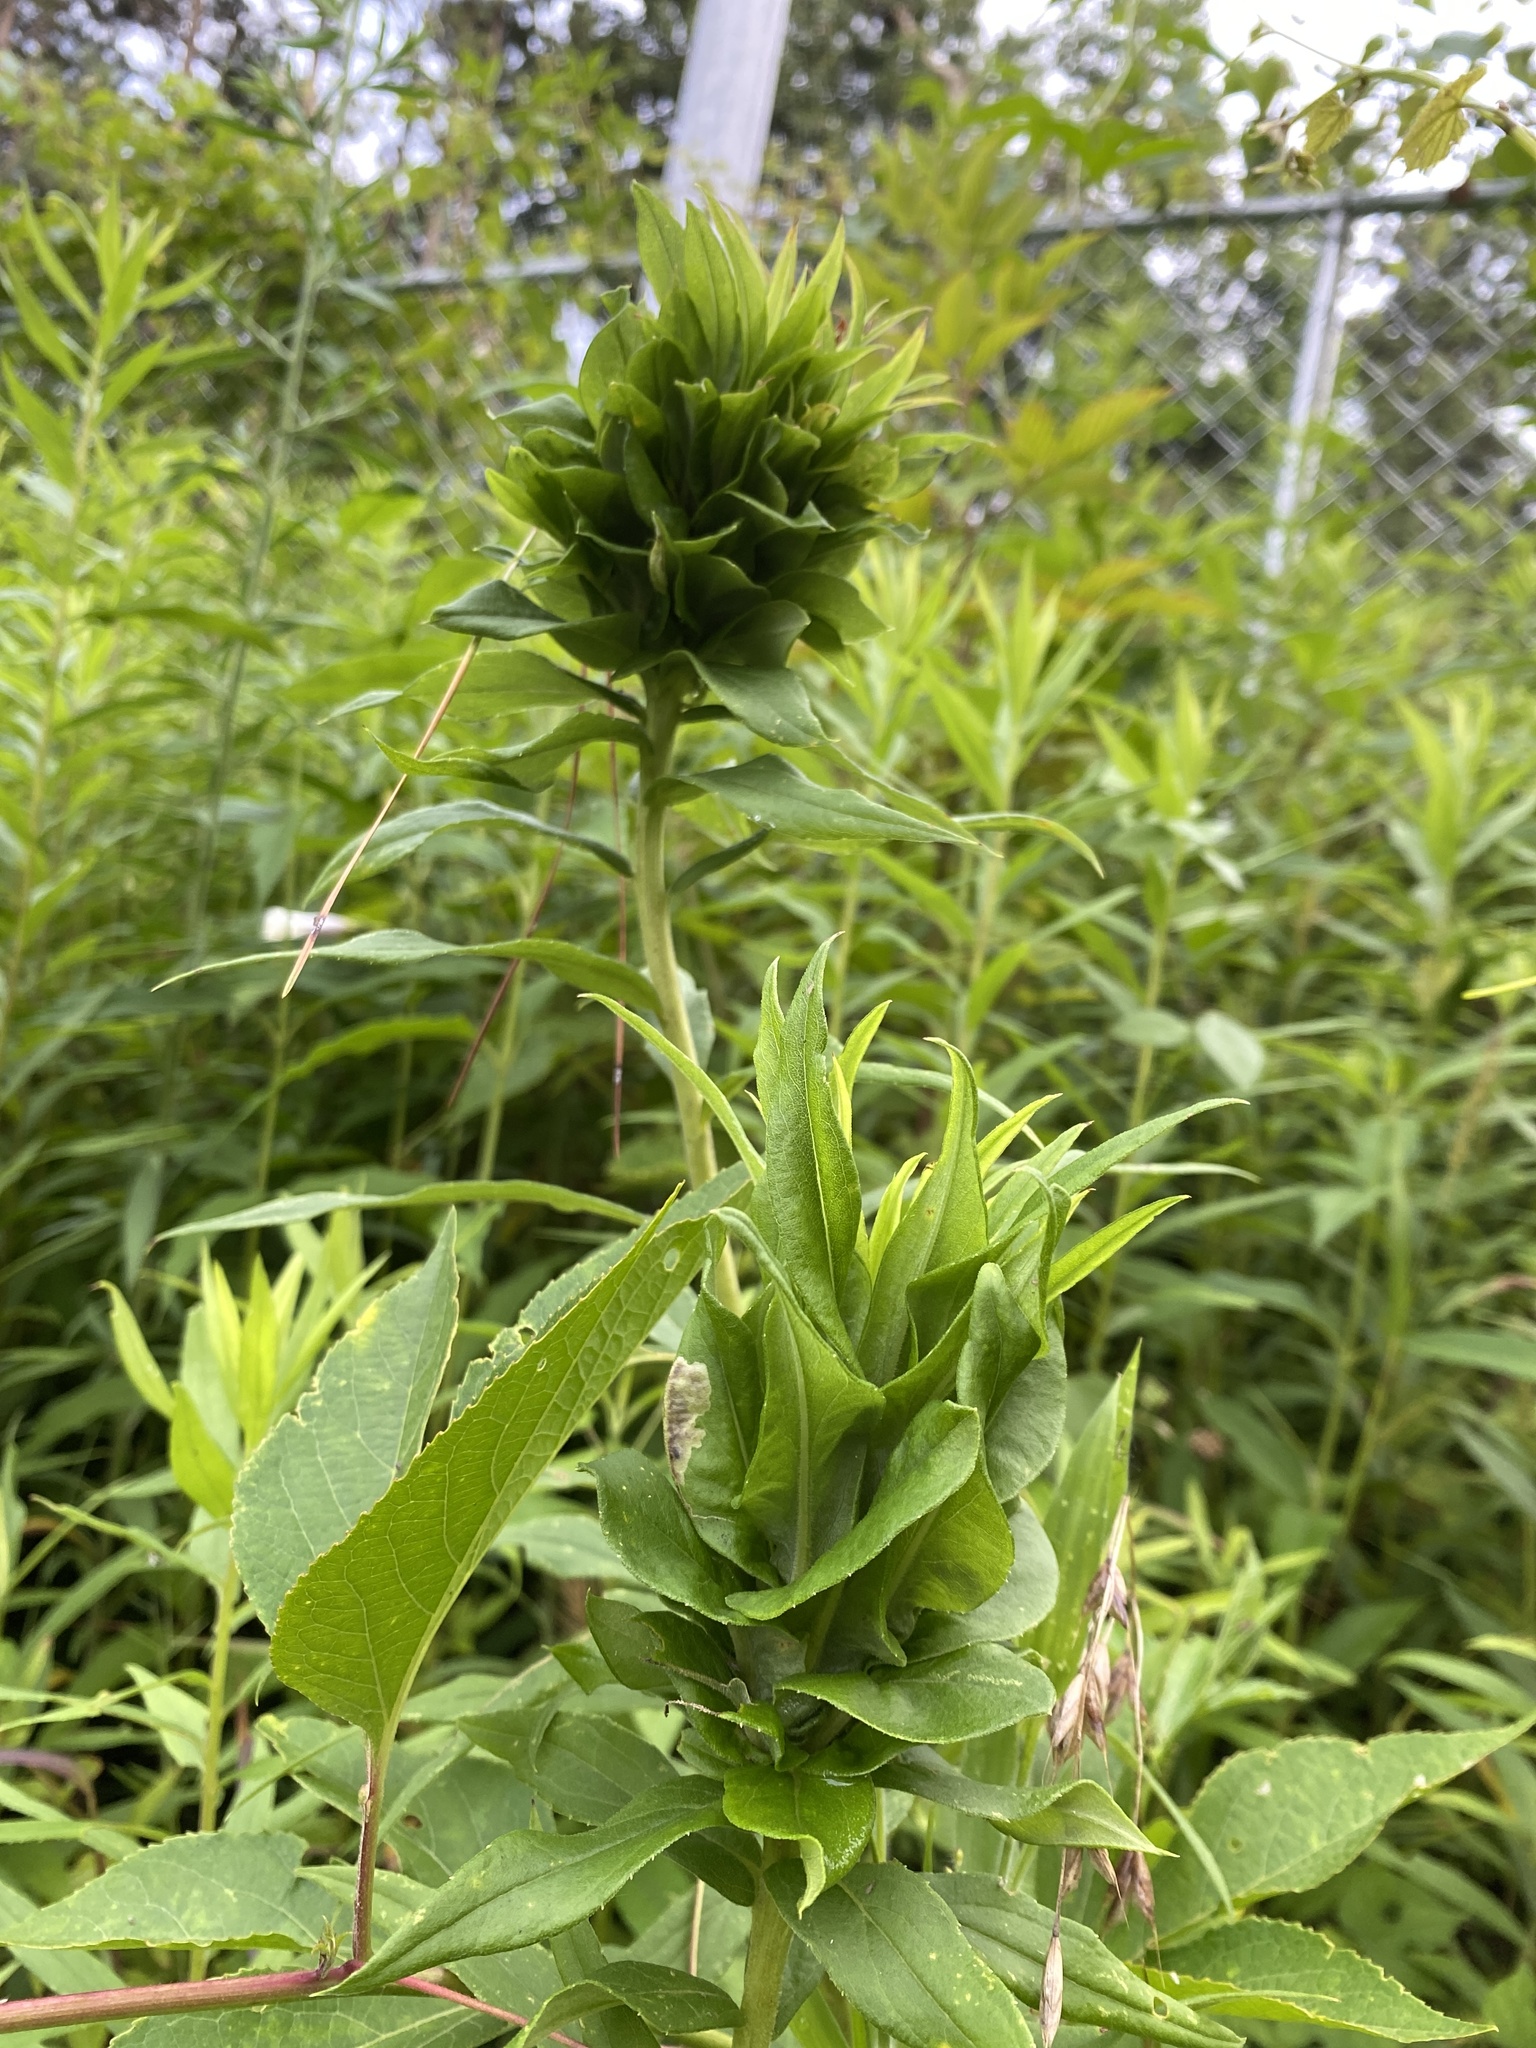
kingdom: Animalia
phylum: Arthropoda
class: Insecta
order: Diptera
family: Cecidomyiidae
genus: Rhopalomyia
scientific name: Rhopalomyia solidaginis
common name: Goldenrod bunch gall midge
